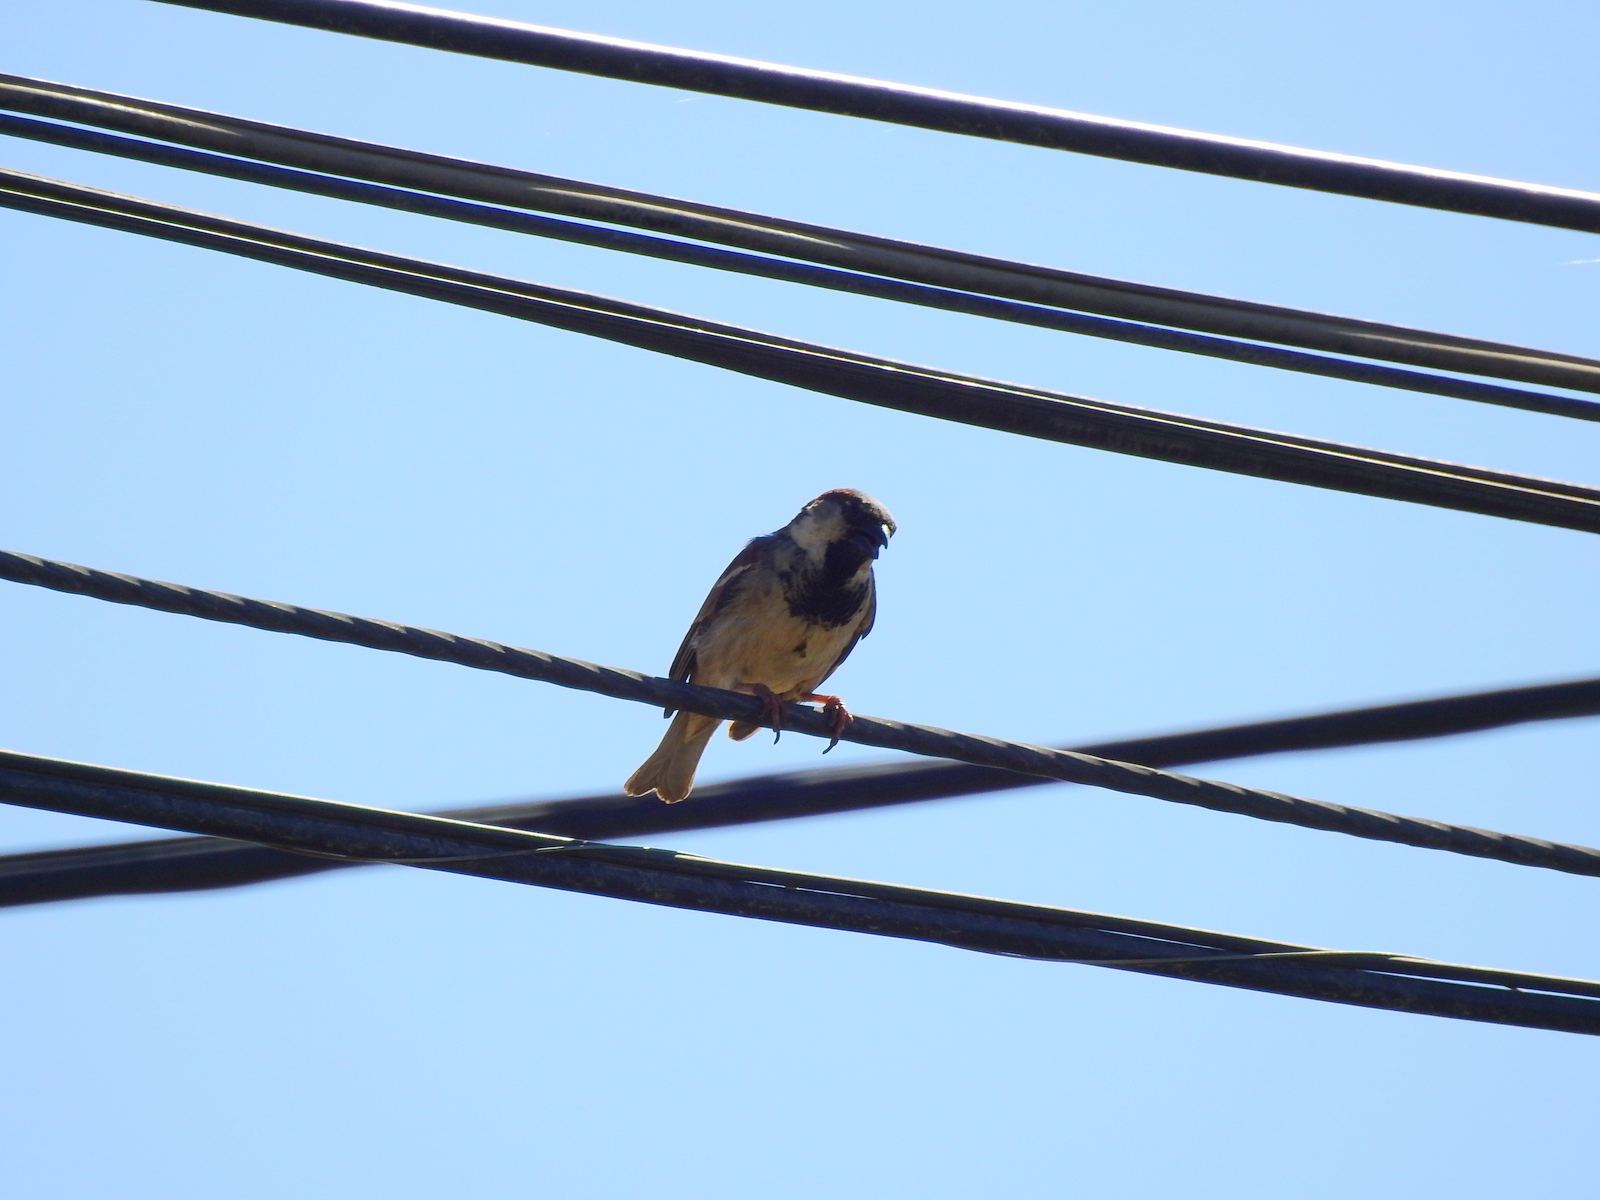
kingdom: Animalia
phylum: Chordata
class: Aves
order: Passeriformes
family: Passeridae
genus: Passer
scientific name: Passer domesticus
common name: House sparrow
